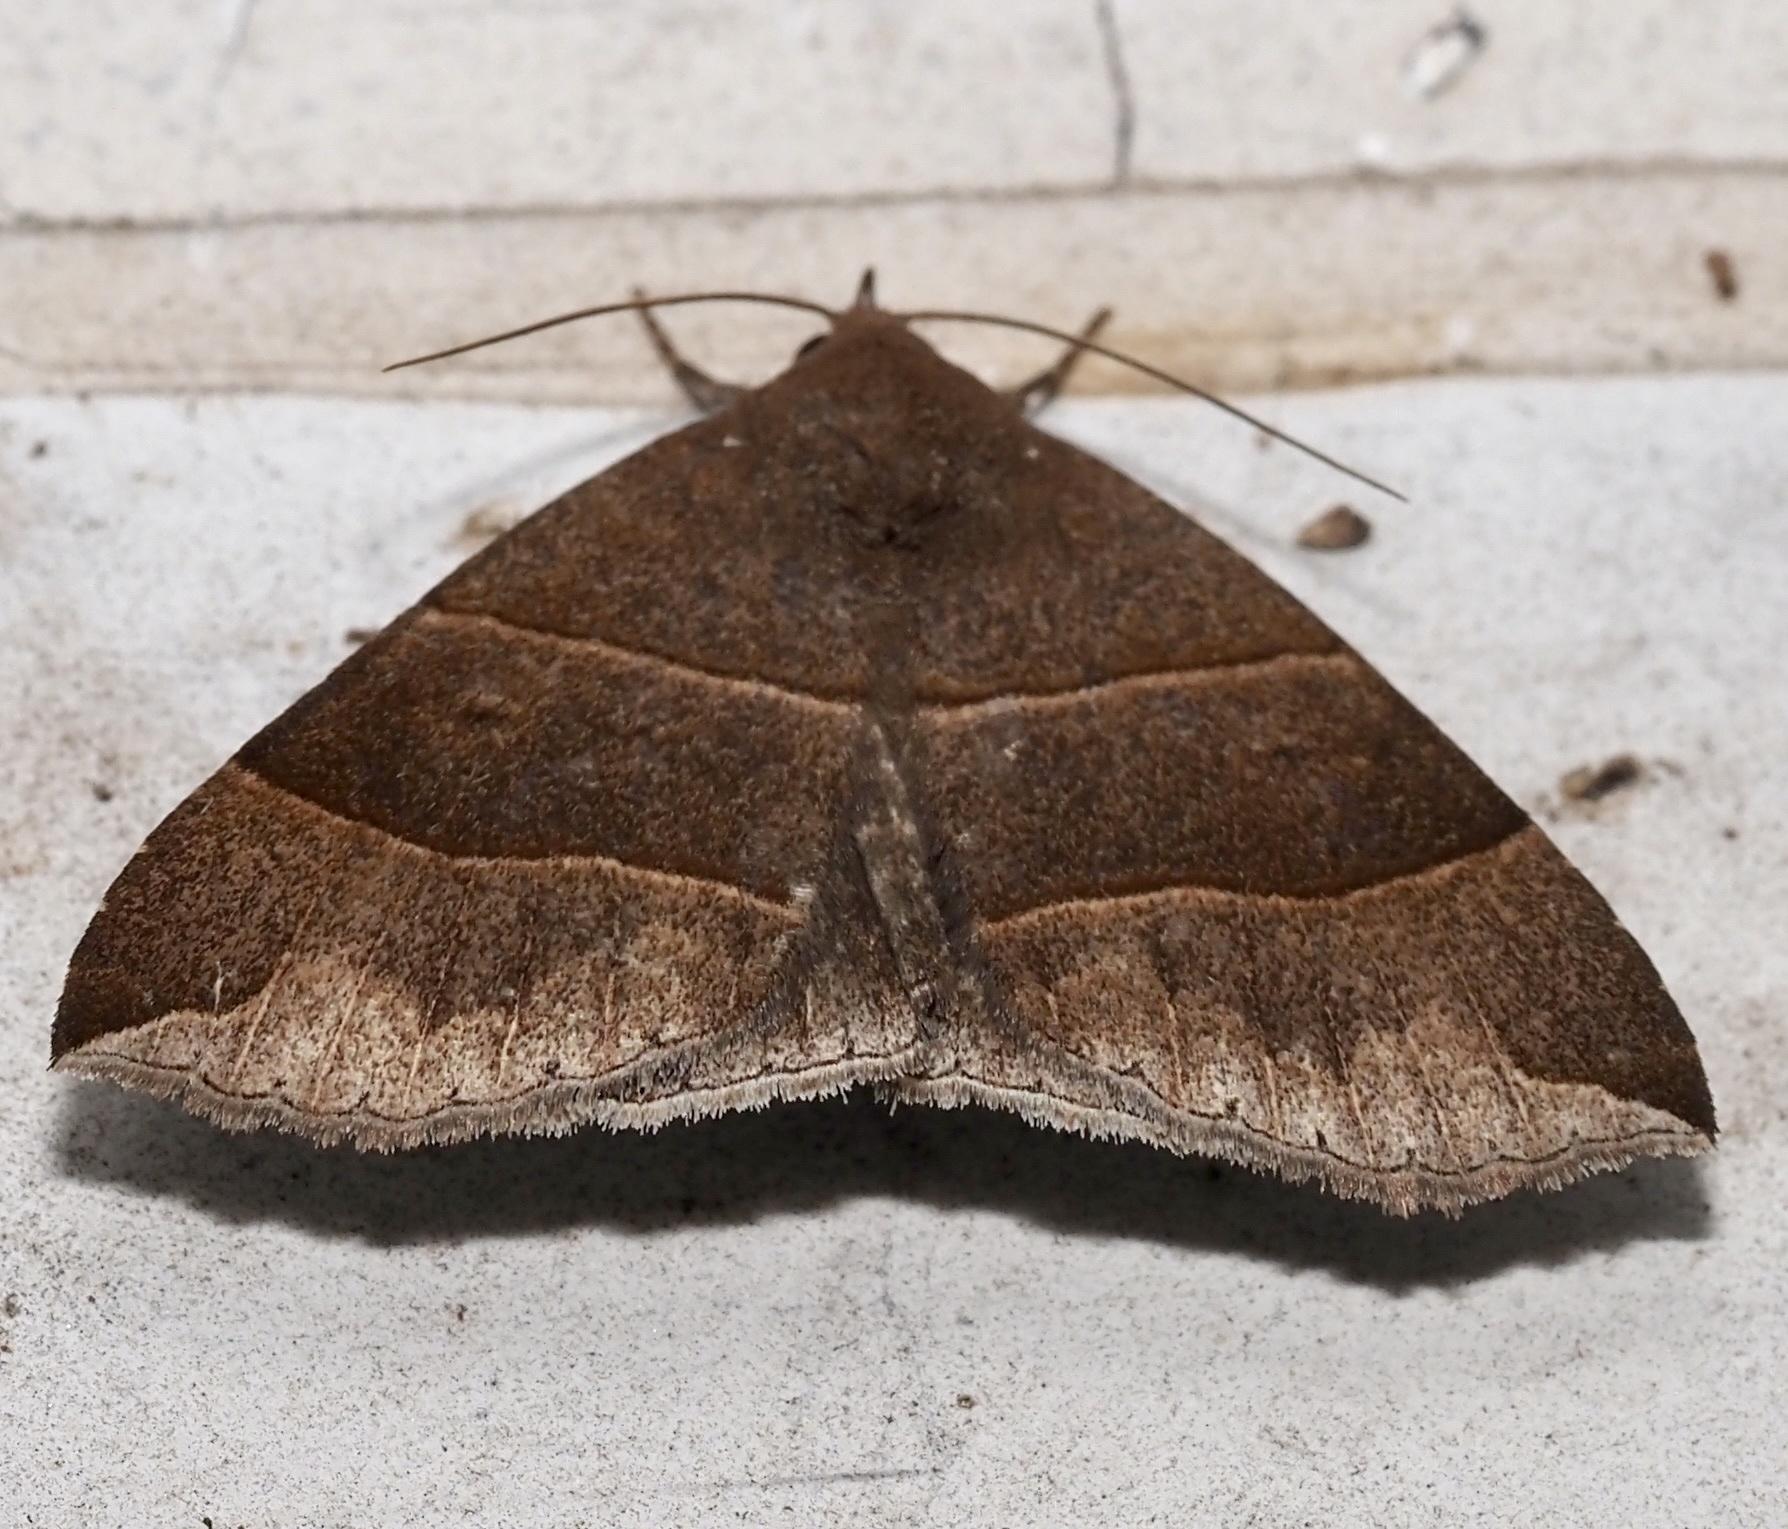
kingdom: Animalia
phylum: Arthropoda
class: Insecta
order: Lepidoptera
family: Erebidae
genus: Parallelia
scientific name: Parallelia bistriaris
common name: Maple looper moth
